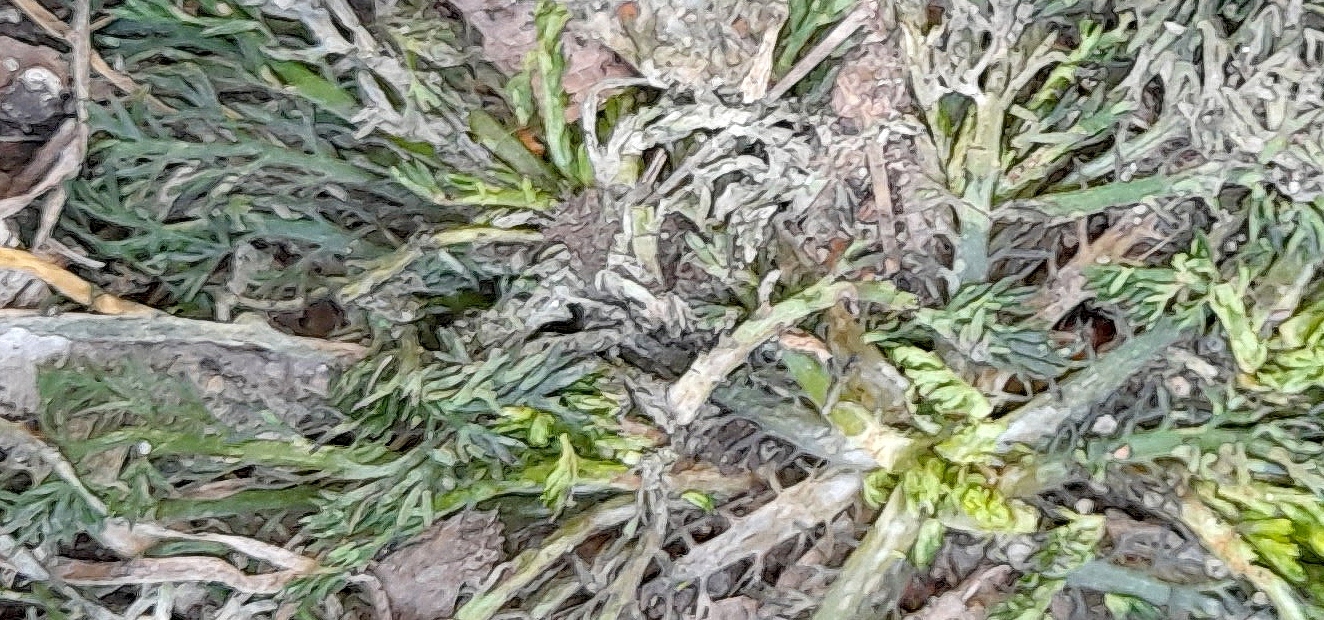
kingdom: Plantae
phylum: Tracheophyta
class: Magnoliopsida
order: Asterales
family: Asteraceae
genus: Matricaria
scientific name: Matricaria discoidea
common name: Disc mayweed
